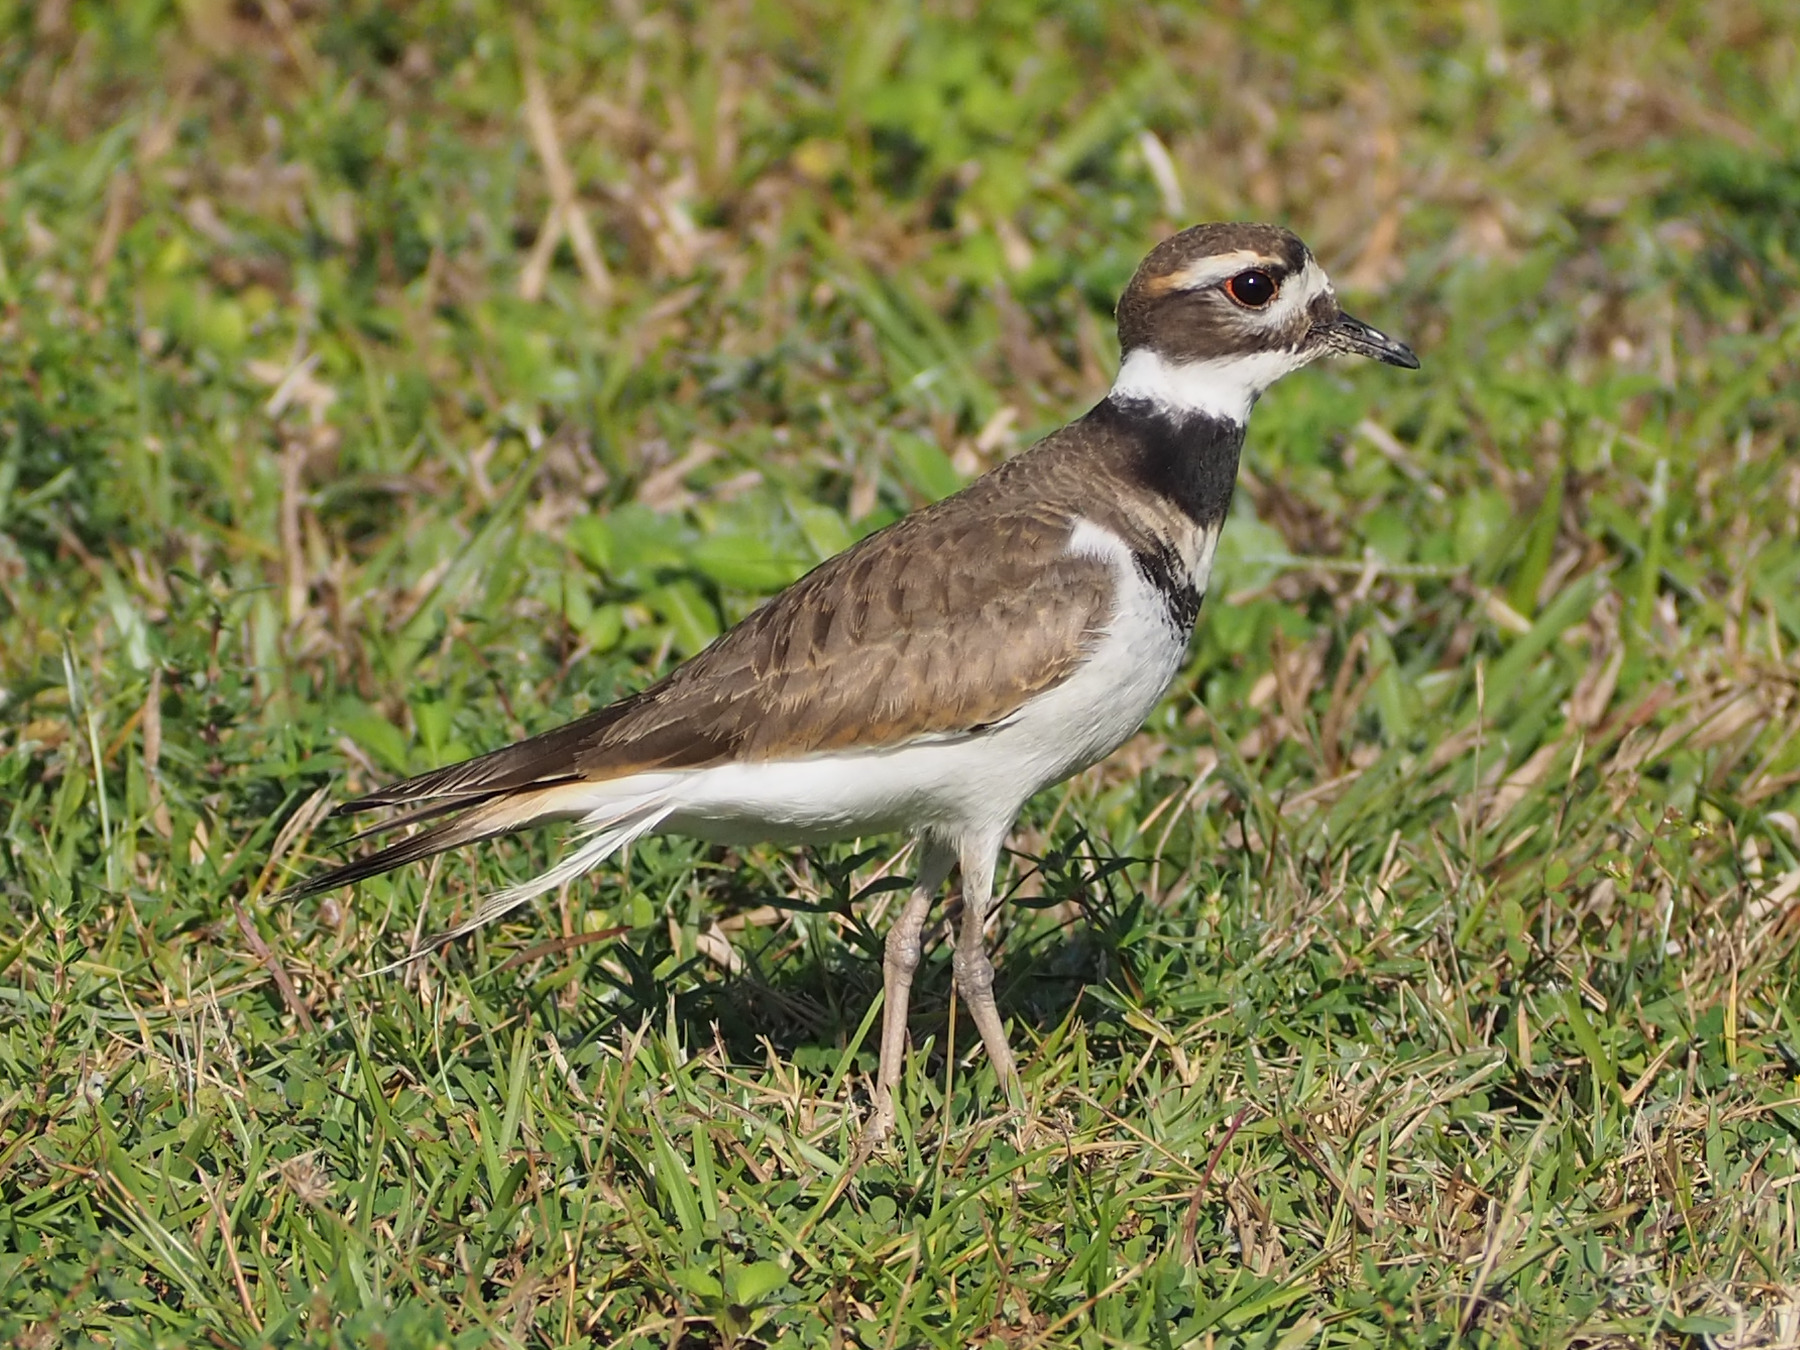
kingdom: Animalia
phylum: Chordata
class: Aves
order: Charadriiformes
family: Charadriidae
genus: Charadrius
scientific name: Charadrius vociferus
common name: Killdeer
